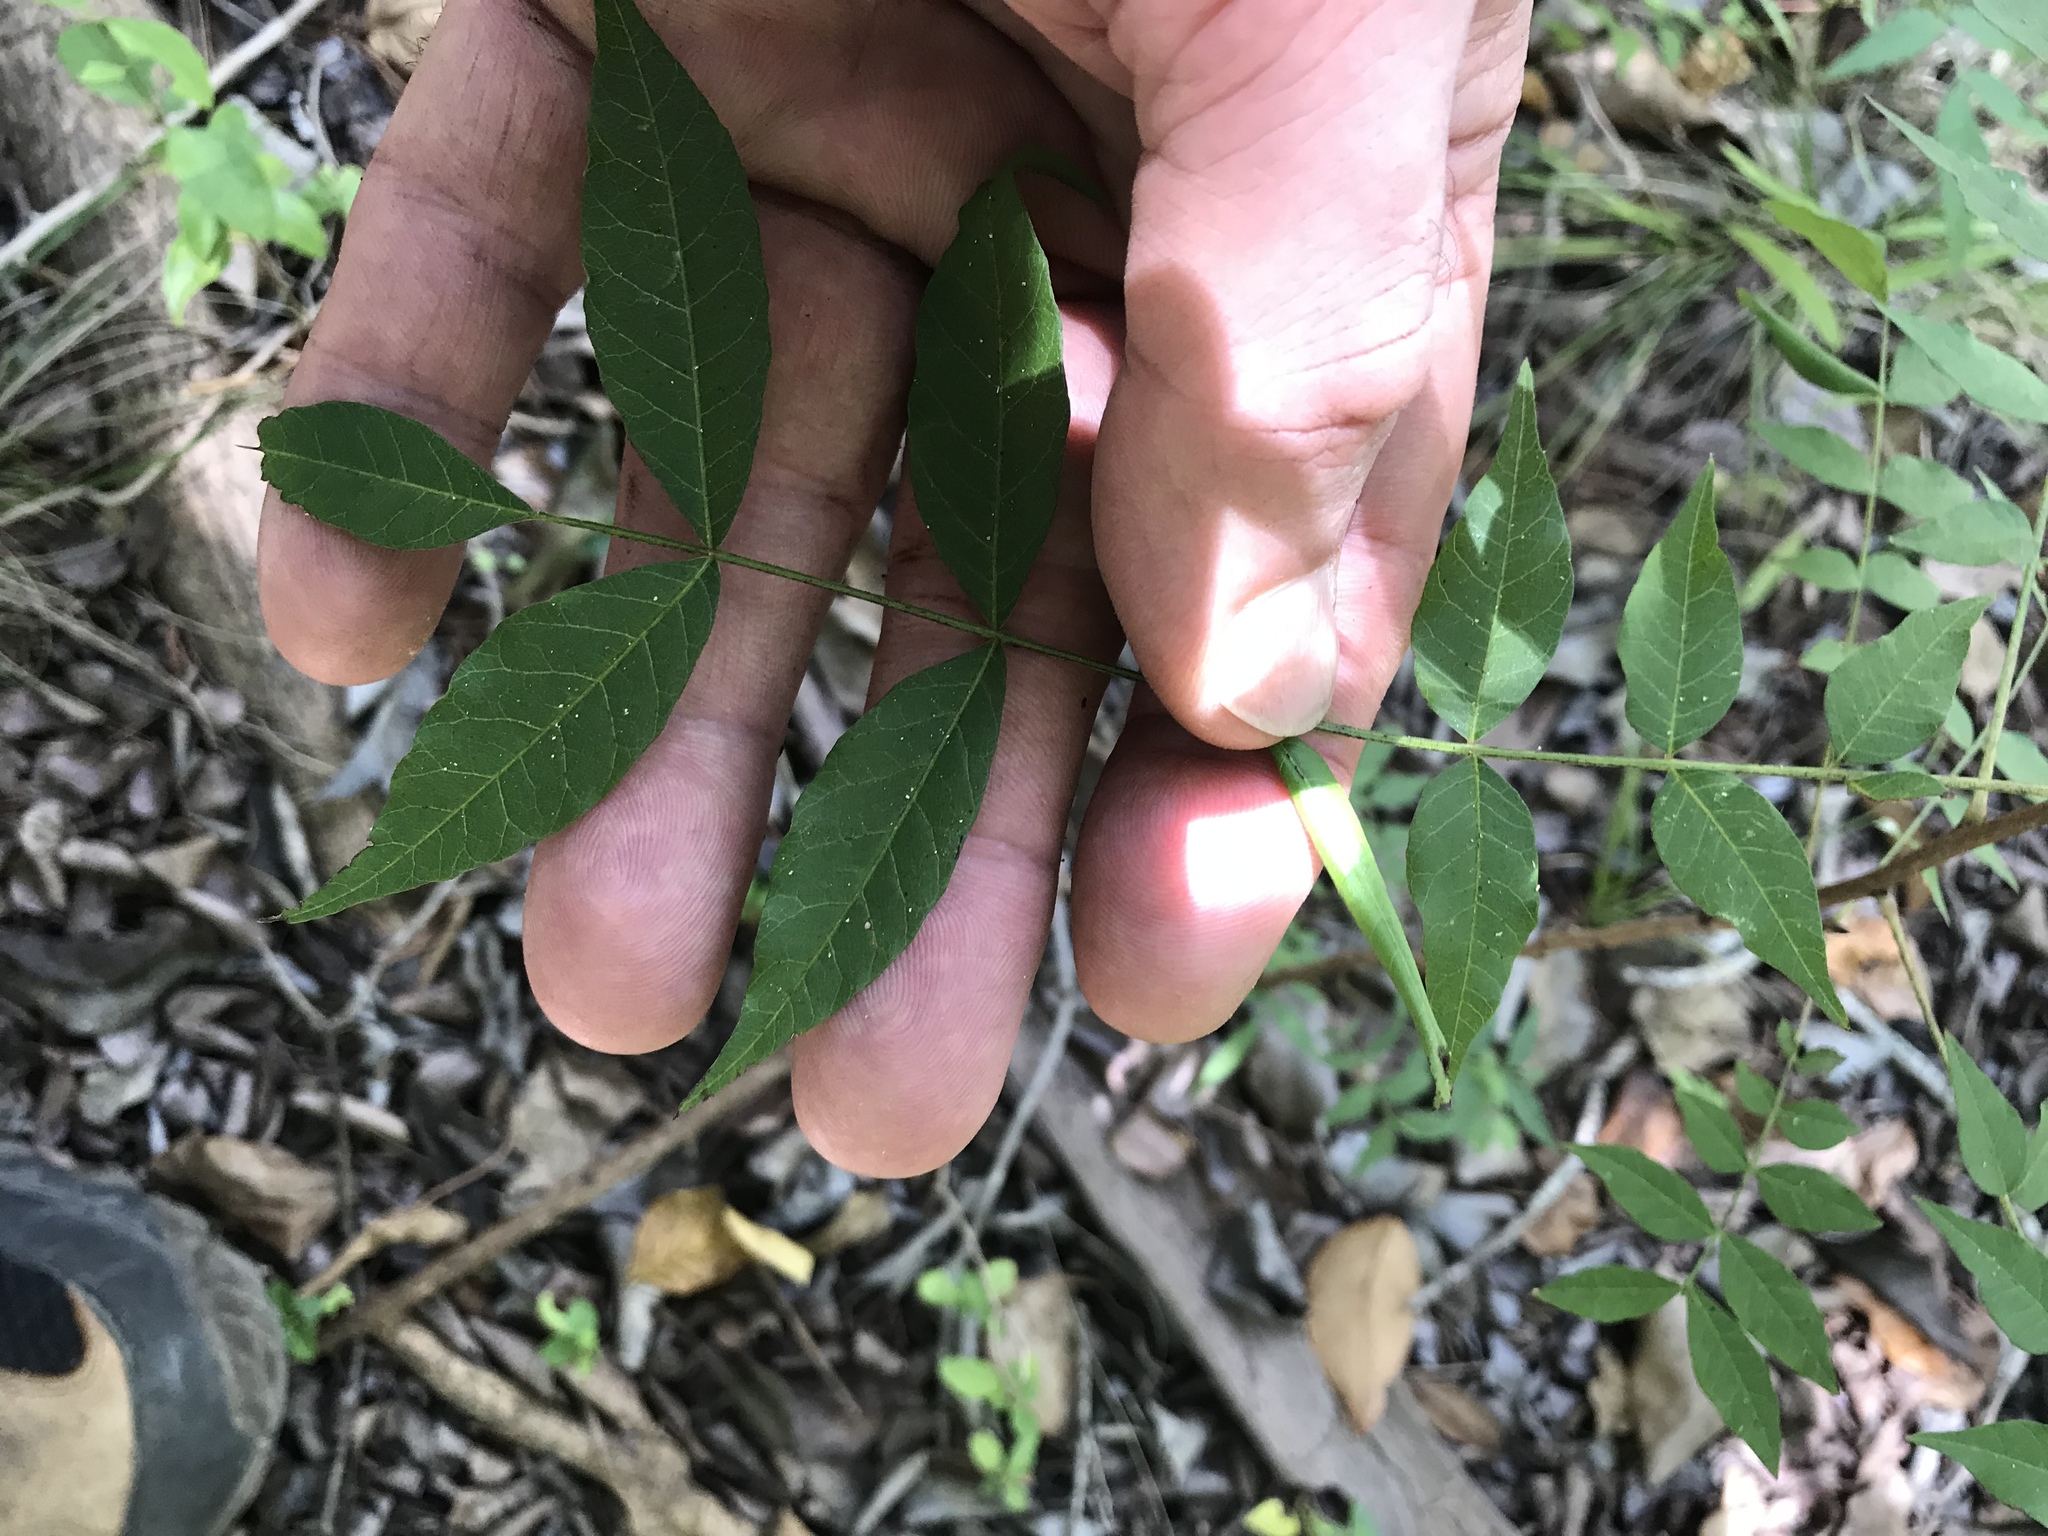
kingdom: Plantae
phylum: Tracheophyta
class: Magnoliopsida
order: Sapindales
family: Anacardiaceae
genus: Pistacia
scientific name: Pistacia chinensis
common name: Chinese pistache
